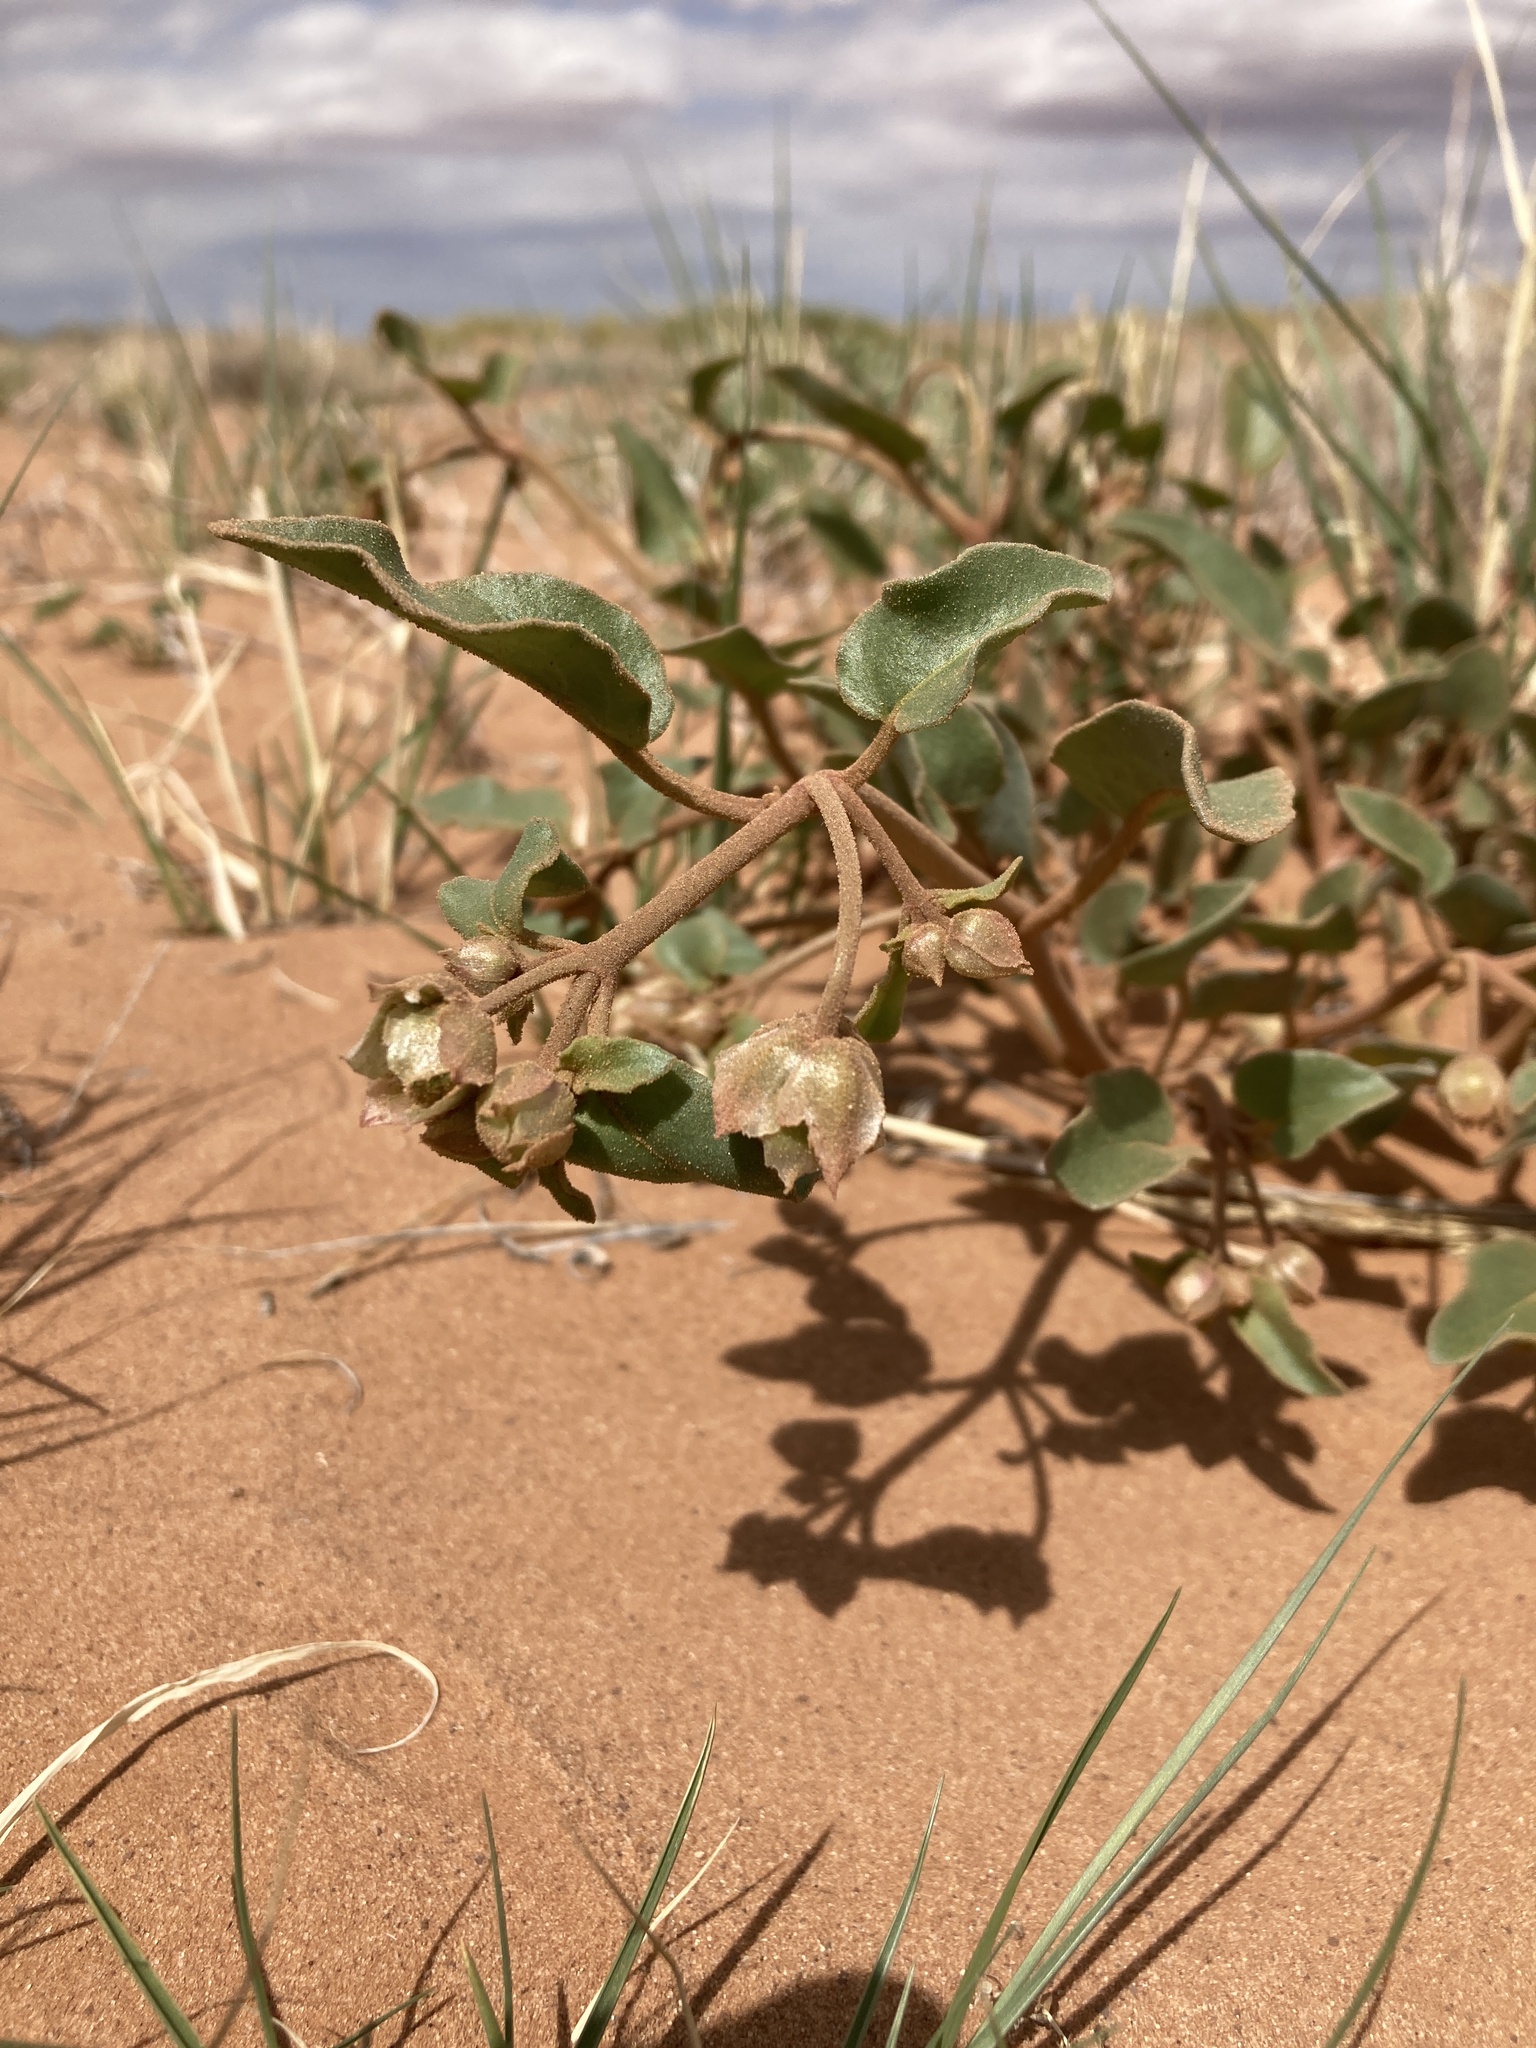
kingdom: Plantae
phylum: Tracheophyta
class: Magnoliopsida
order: Caryophyllales
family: Nyctaginaceae
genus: Abronia
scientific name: Abronia elliptica
